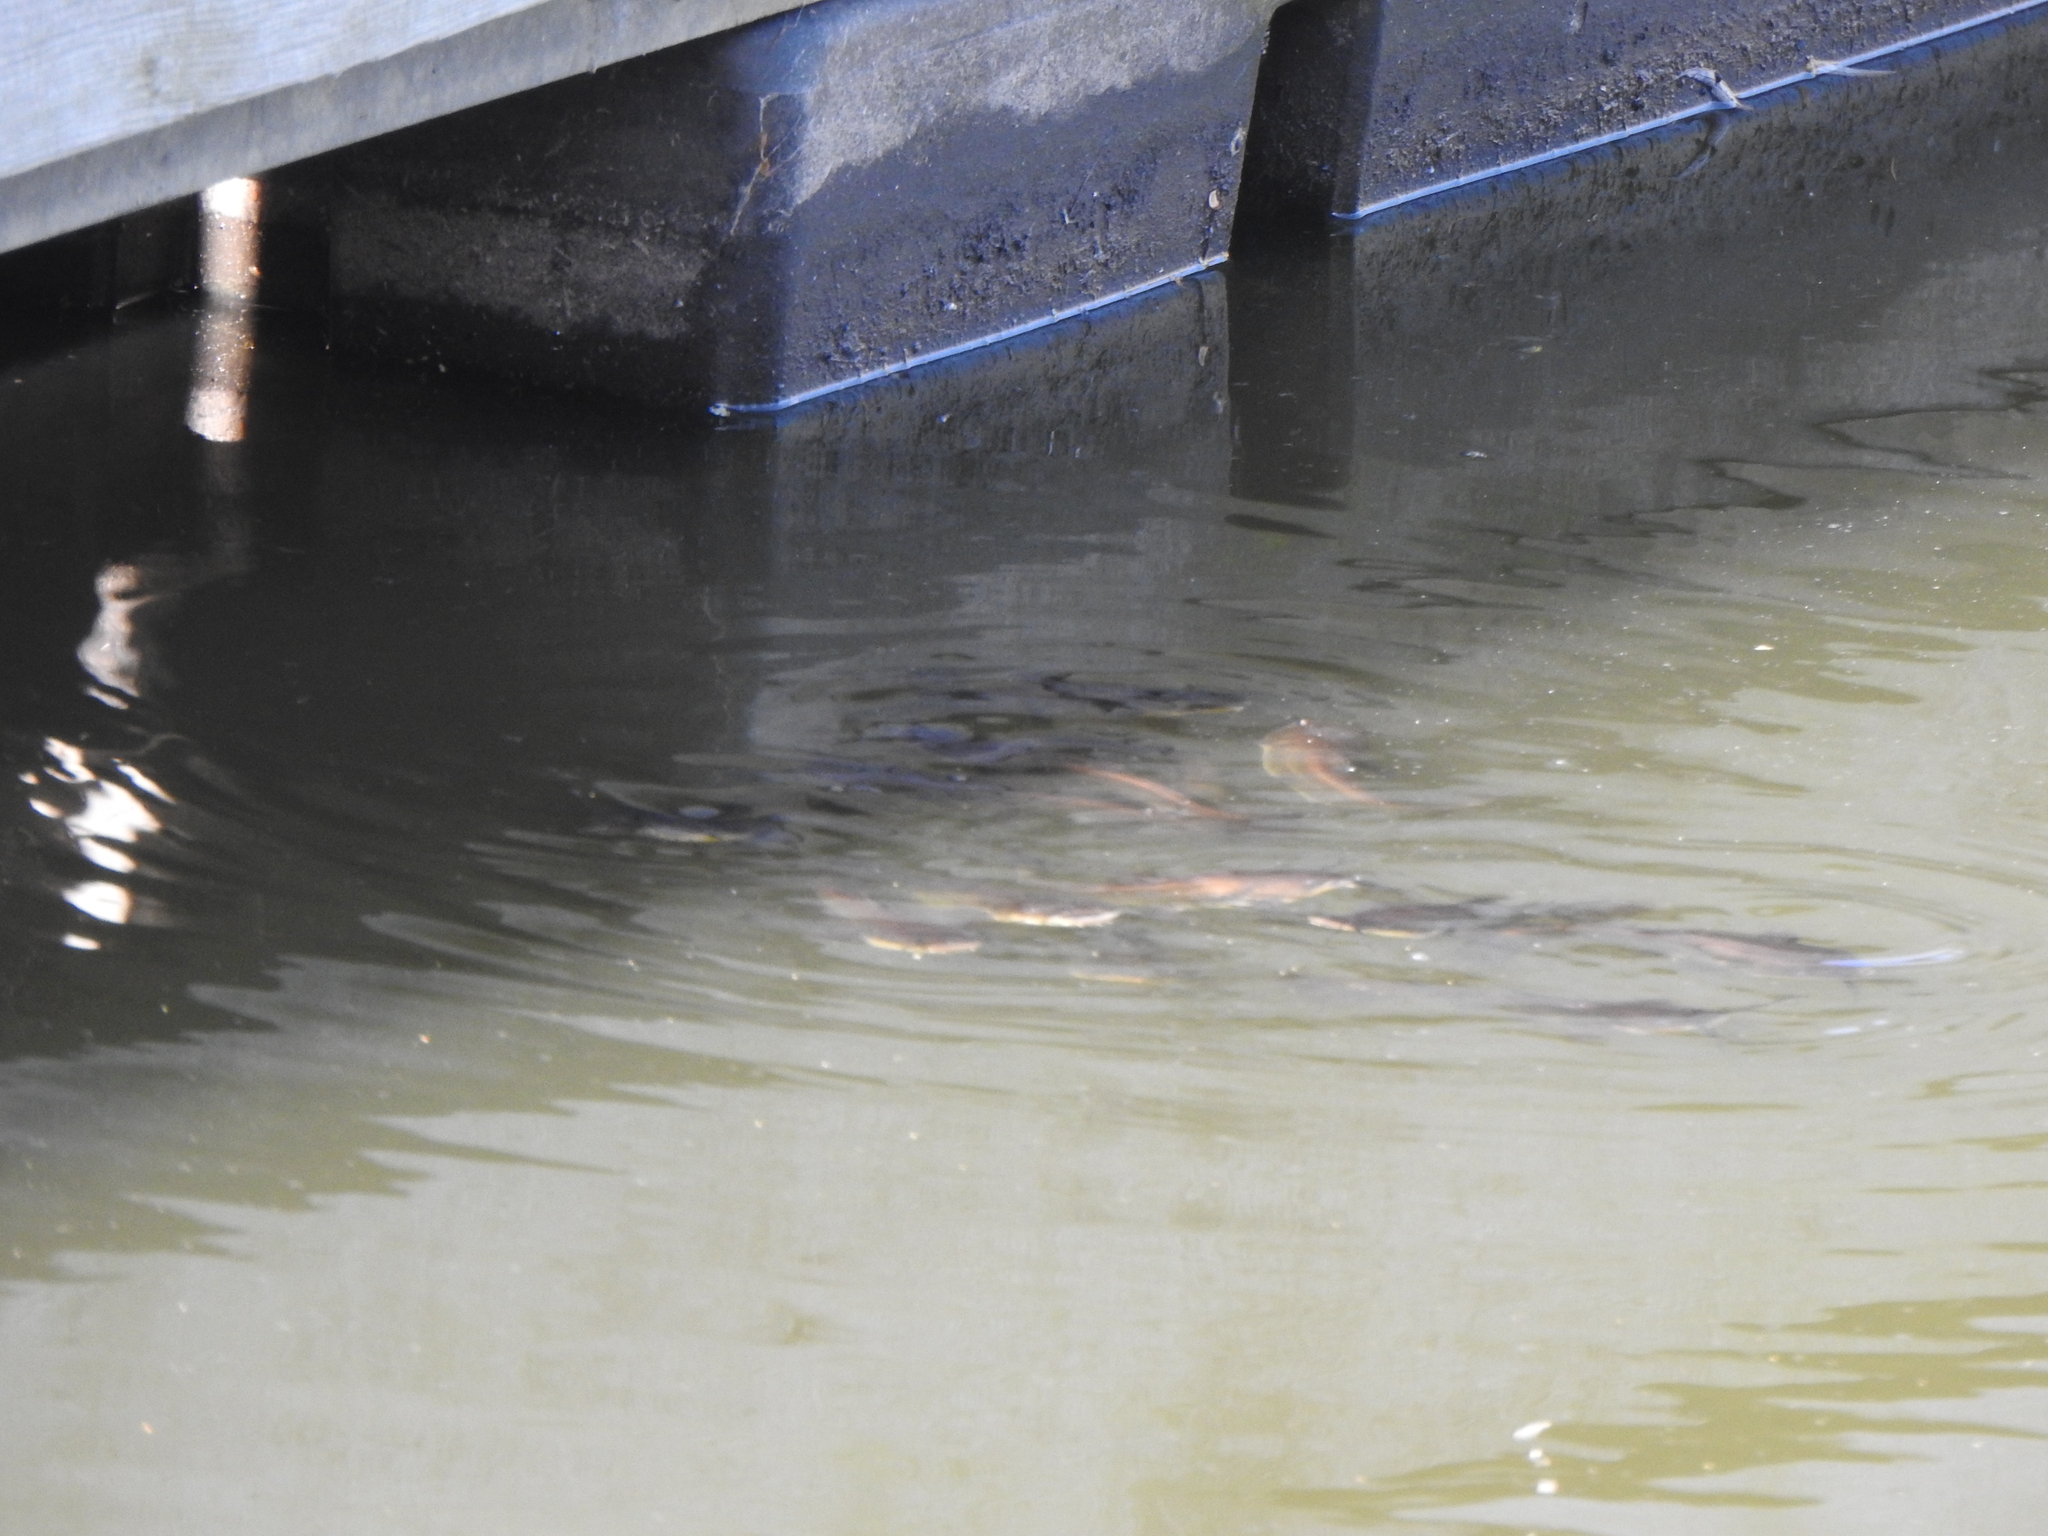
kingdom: Animalia
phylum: Chordata
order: Siluriformes
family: Ictaluridae
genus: Ameiurus
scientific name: Ameiurus melas
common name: Black bullhead
